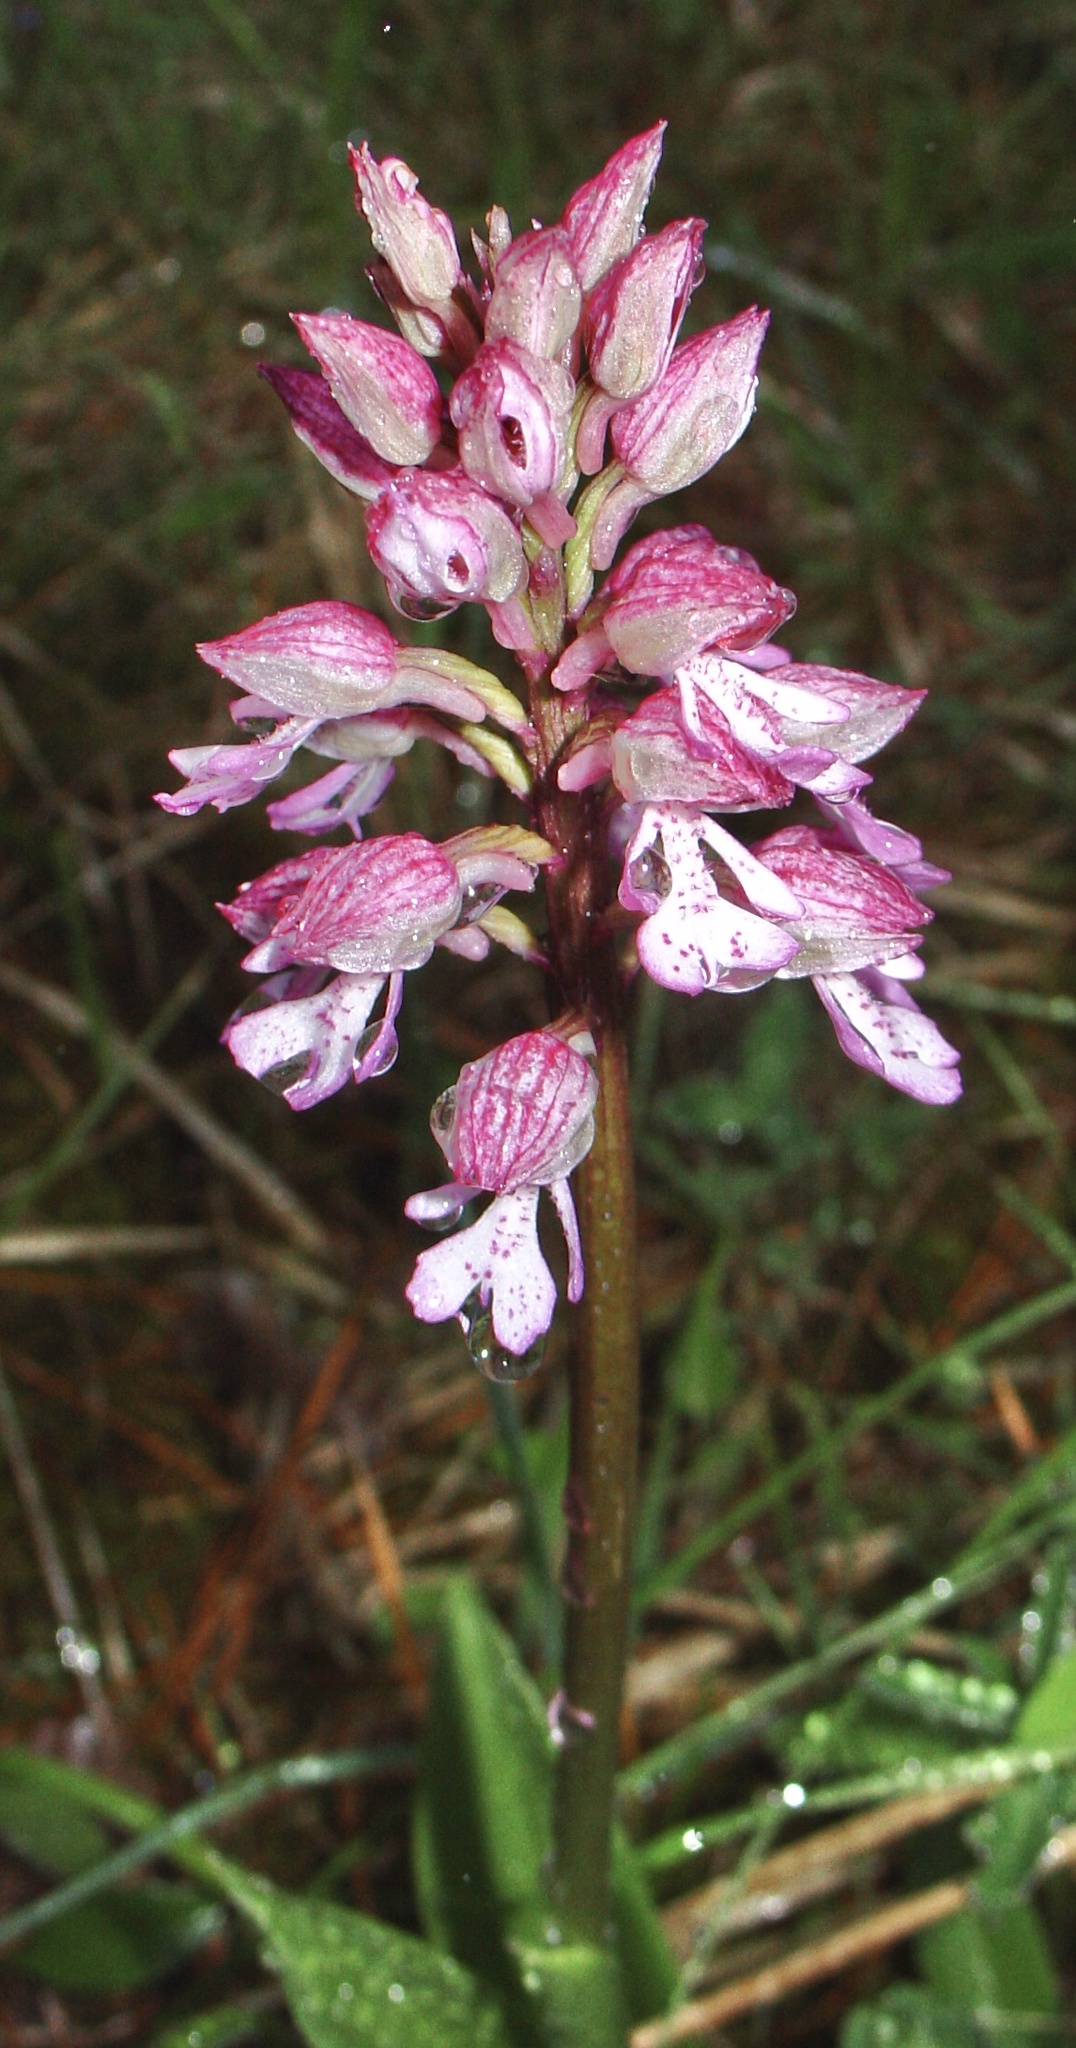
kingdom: Plantae
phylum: Tracheophyta
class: Liliopsida
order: Asparagales
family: Orchidaceae
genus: Orchis
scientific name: Orchis purpurea
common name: Lady orchid
